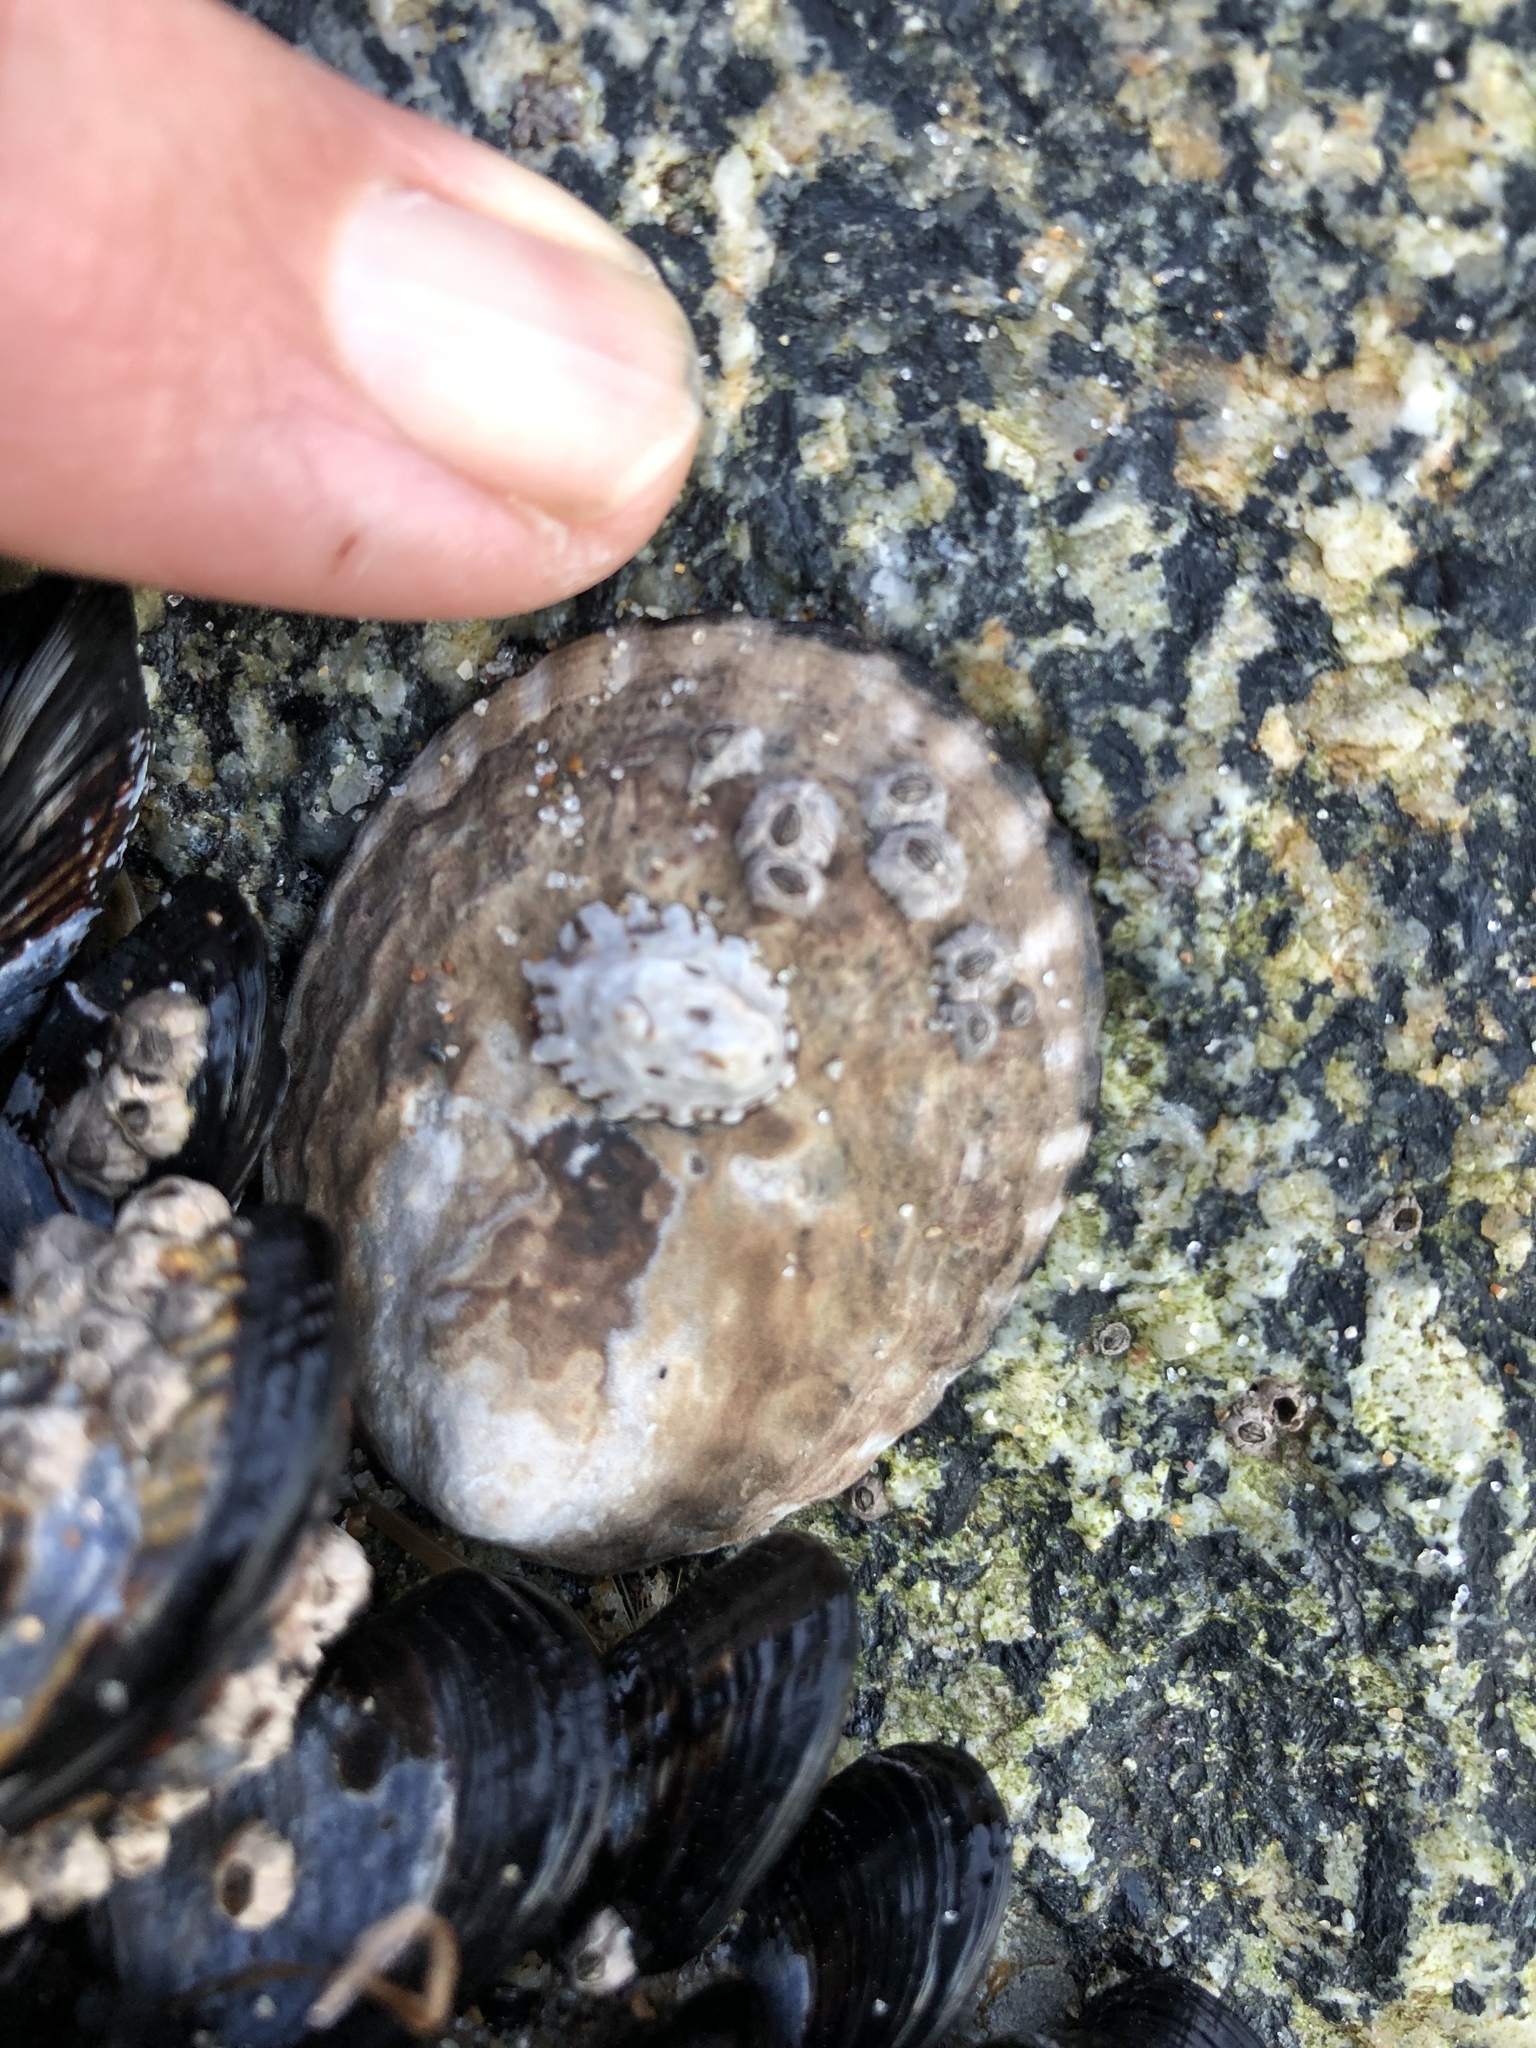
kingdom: Animalia
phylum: Mollusca
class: Gastropoda
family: Lottiidae
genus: Lottia
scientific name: Lottia gigantea
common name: Owl limpet
